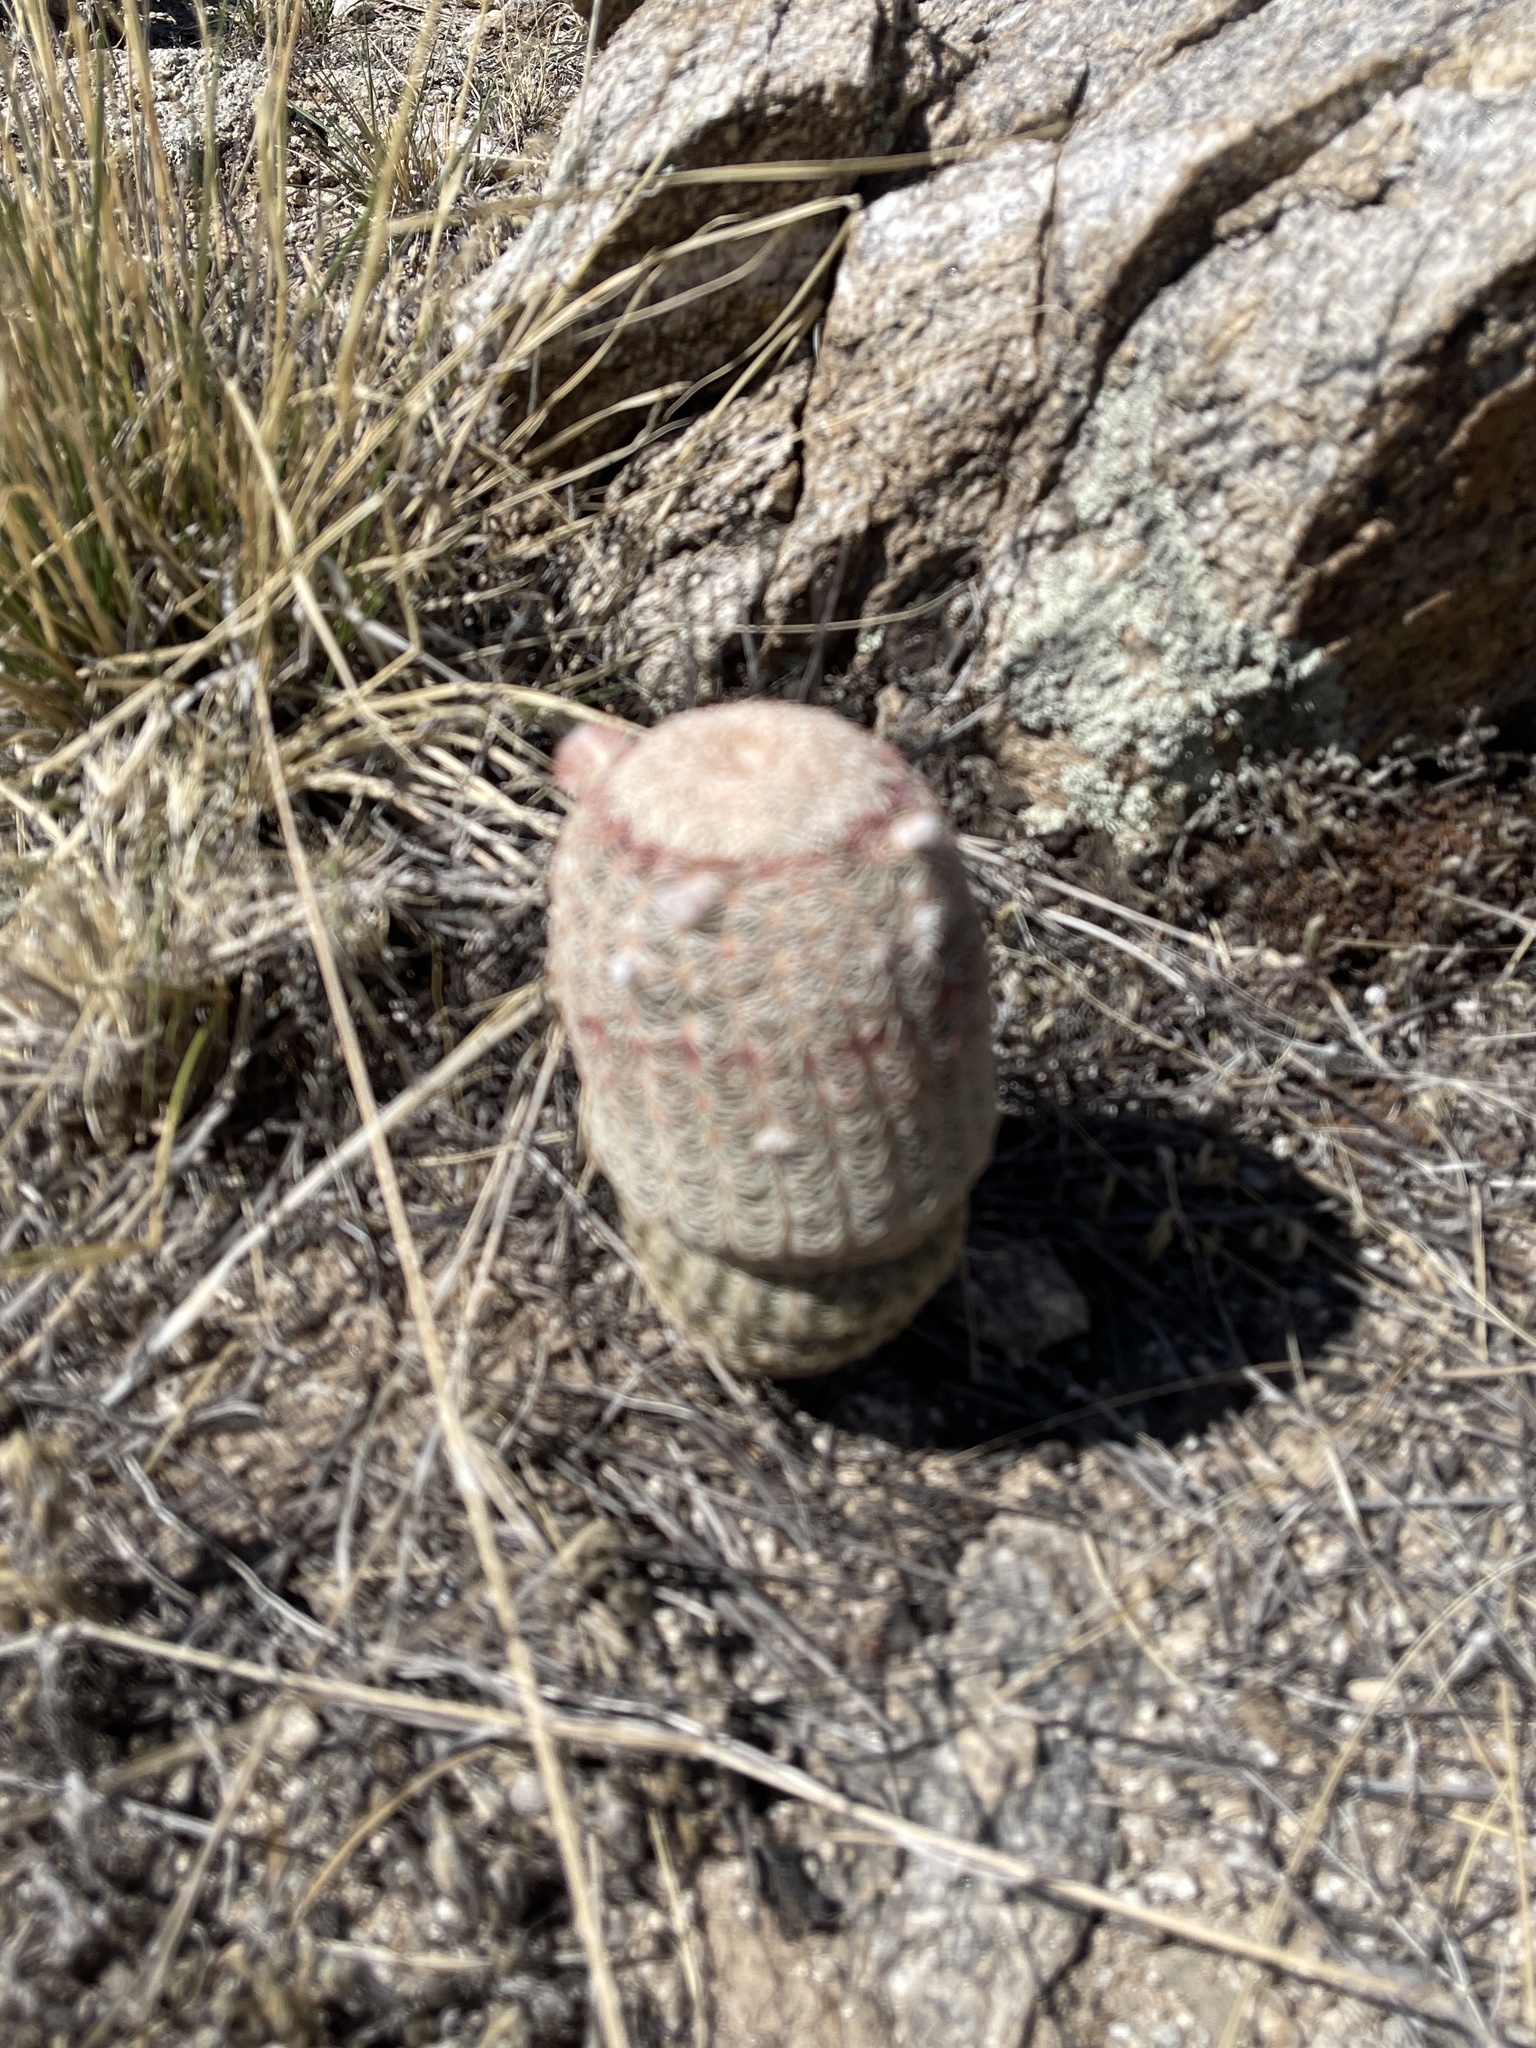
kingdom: Plantae
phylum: Tracheophyta
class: Magnoliopsida
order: Caryophyllales
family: Cactaceae
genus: Echinocereus
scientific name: Echinocereus rigidissimus
